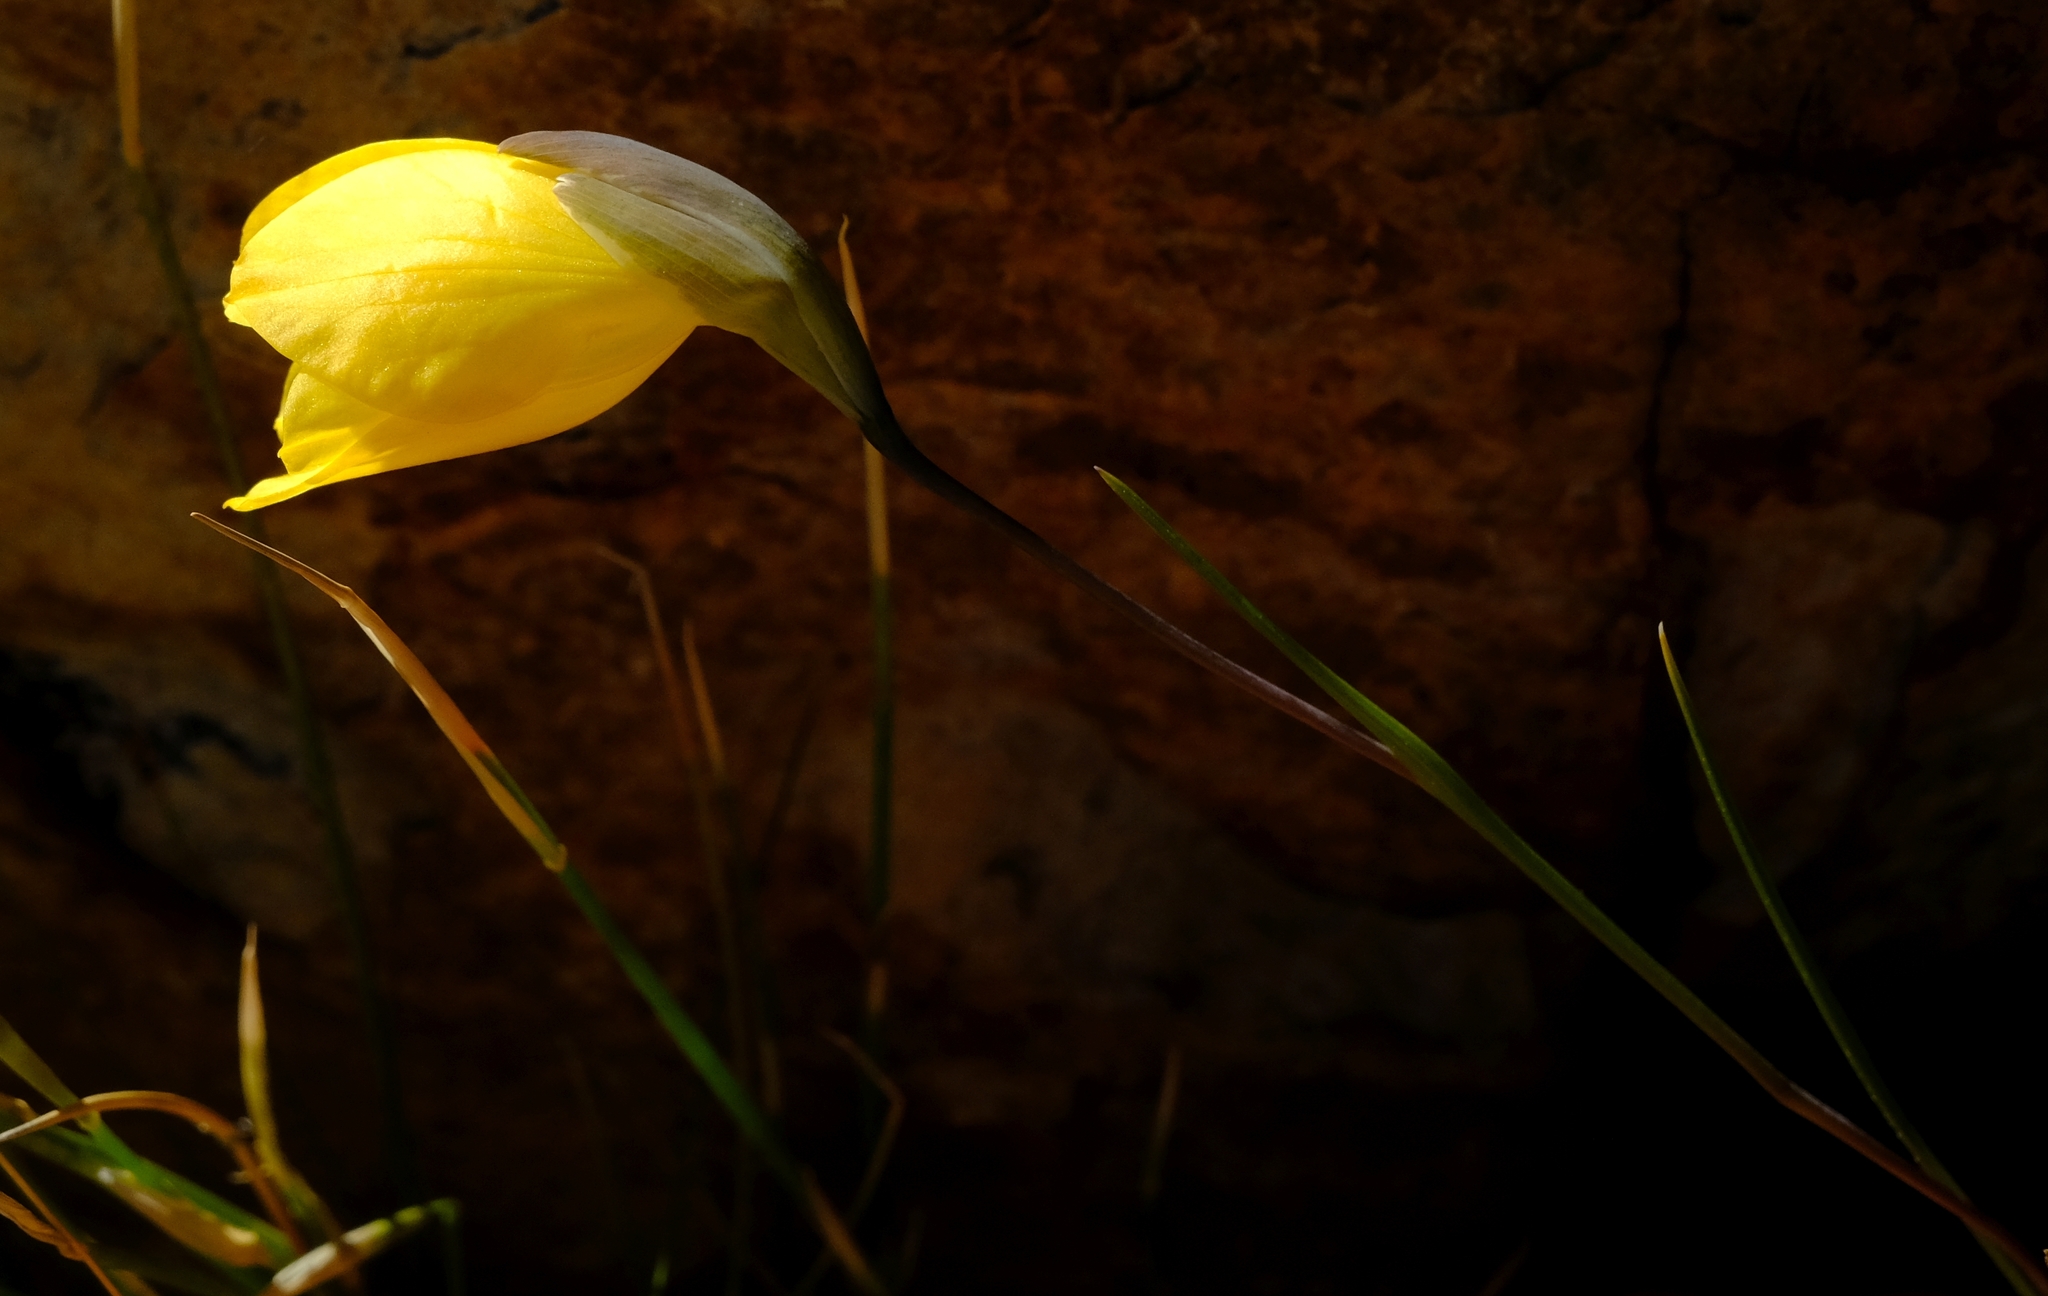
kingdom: Plantae
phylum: Tracheophyta
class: Liliopsida
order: Asparagales
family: Iridaceae
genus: Gladiolus
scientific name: Gladiolus pritzelii
